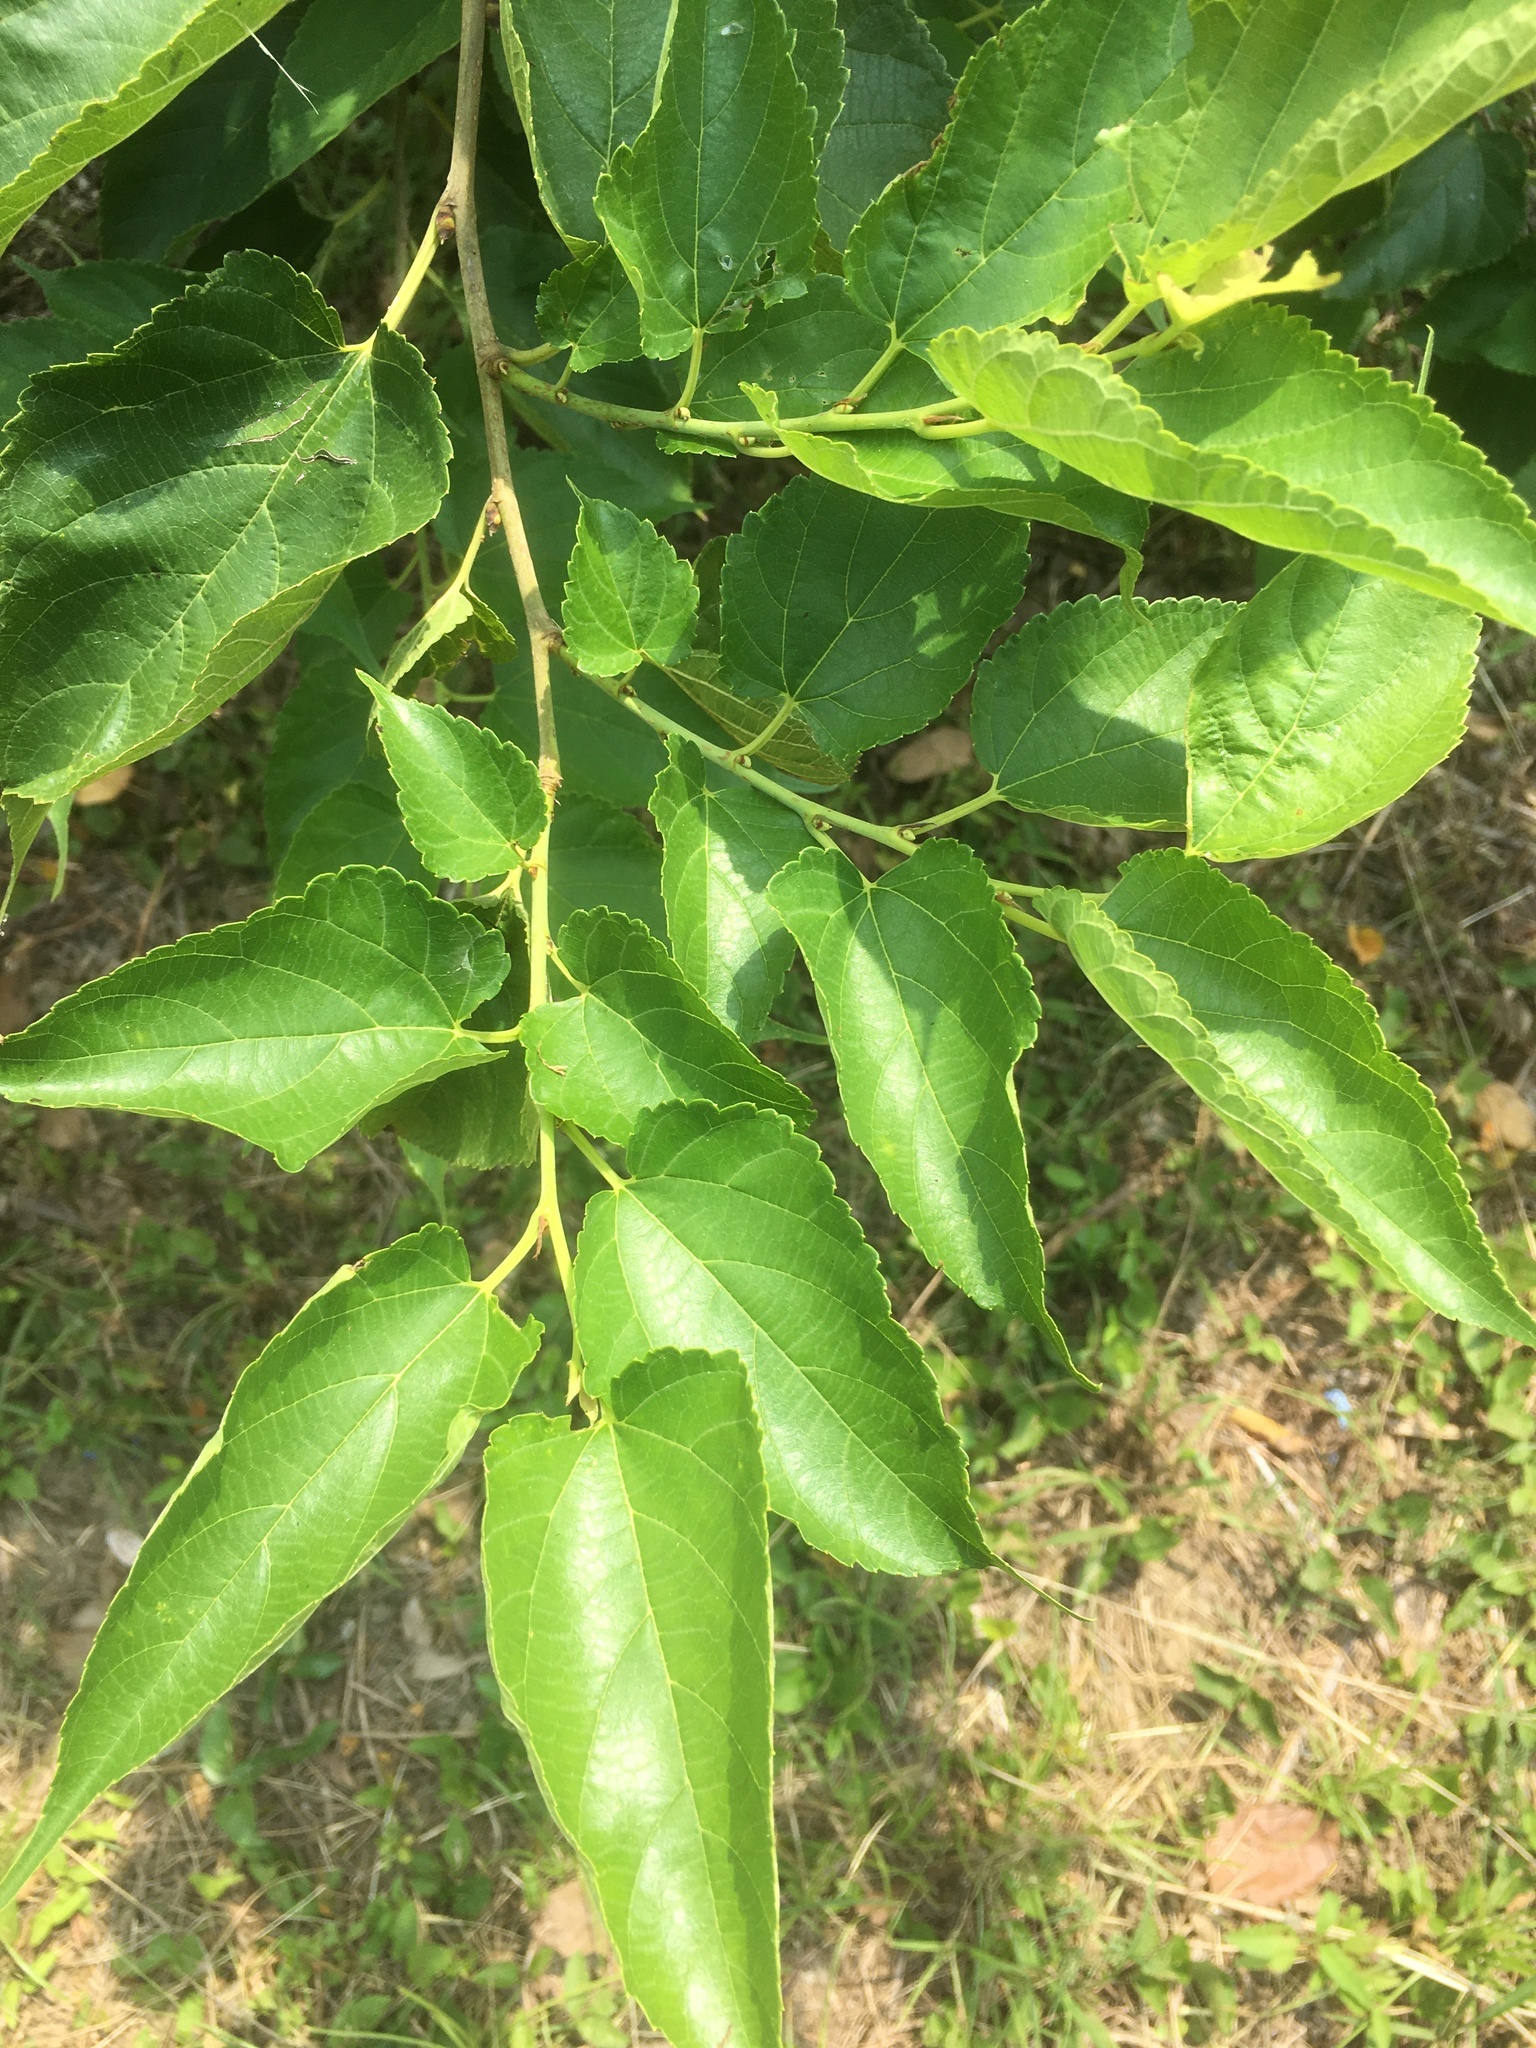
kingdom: Plantae
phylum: Tracheophyta
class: Magnoliopsida
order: Rosales
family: Moraceae
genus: Morus
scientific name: Morus indica
